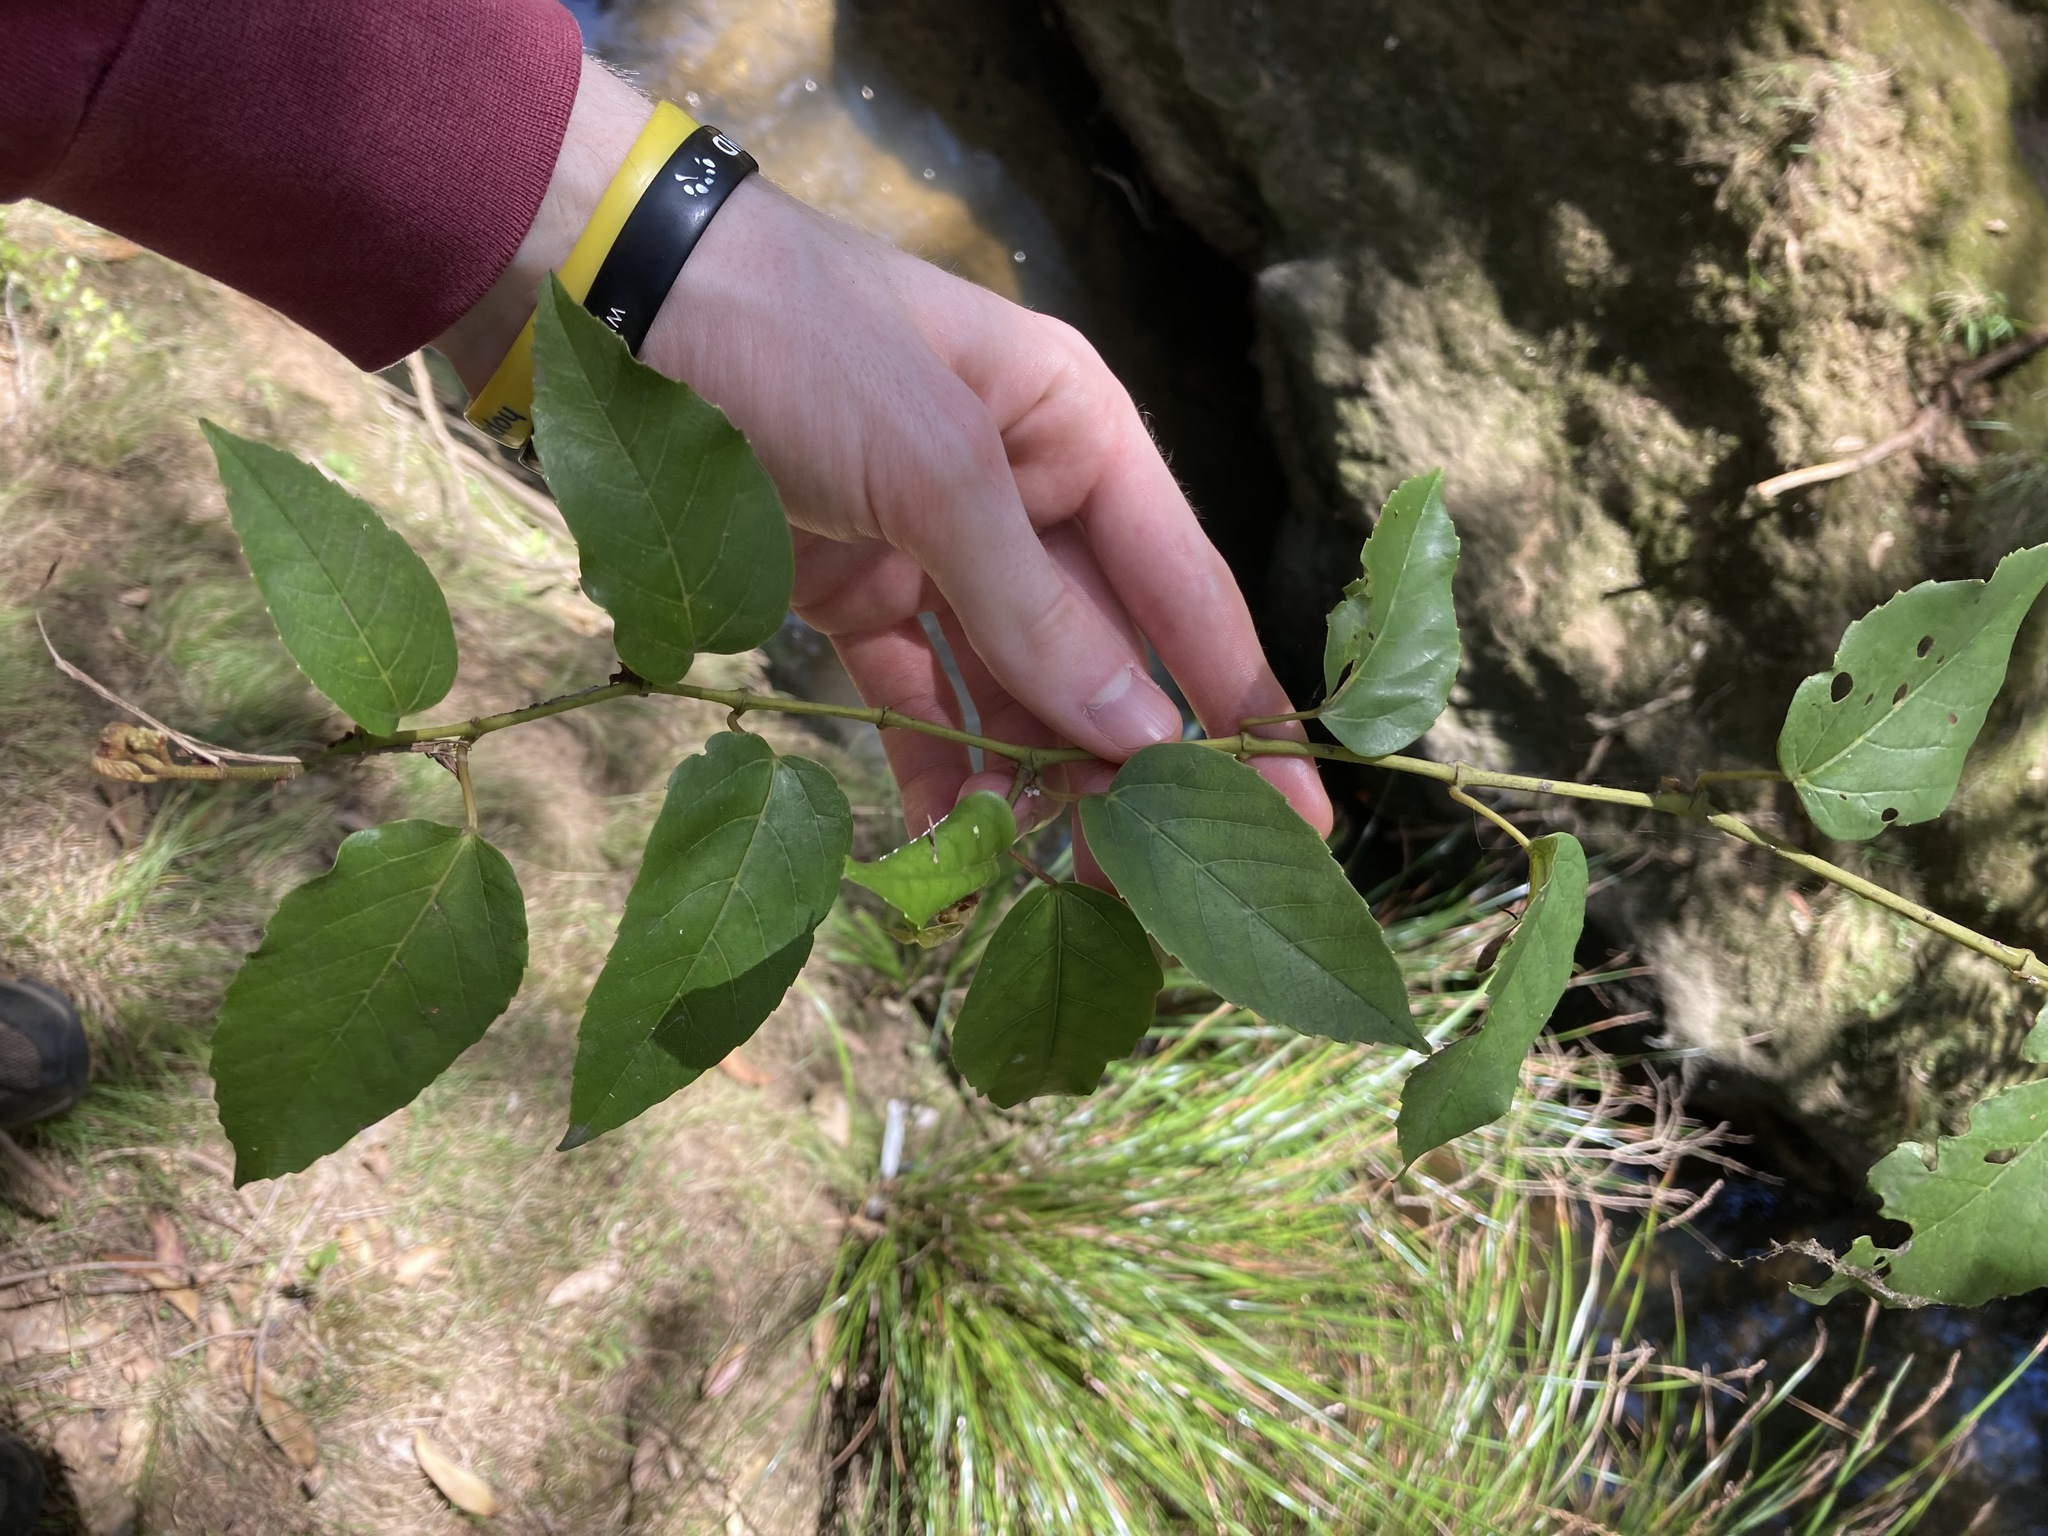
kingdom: Plantae
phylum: Tracheophyta
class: Magnoliopsida
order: Vitales
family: Vitaceae
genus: Cissus
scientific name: Cissus antarctica
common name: Kangaroo vine
